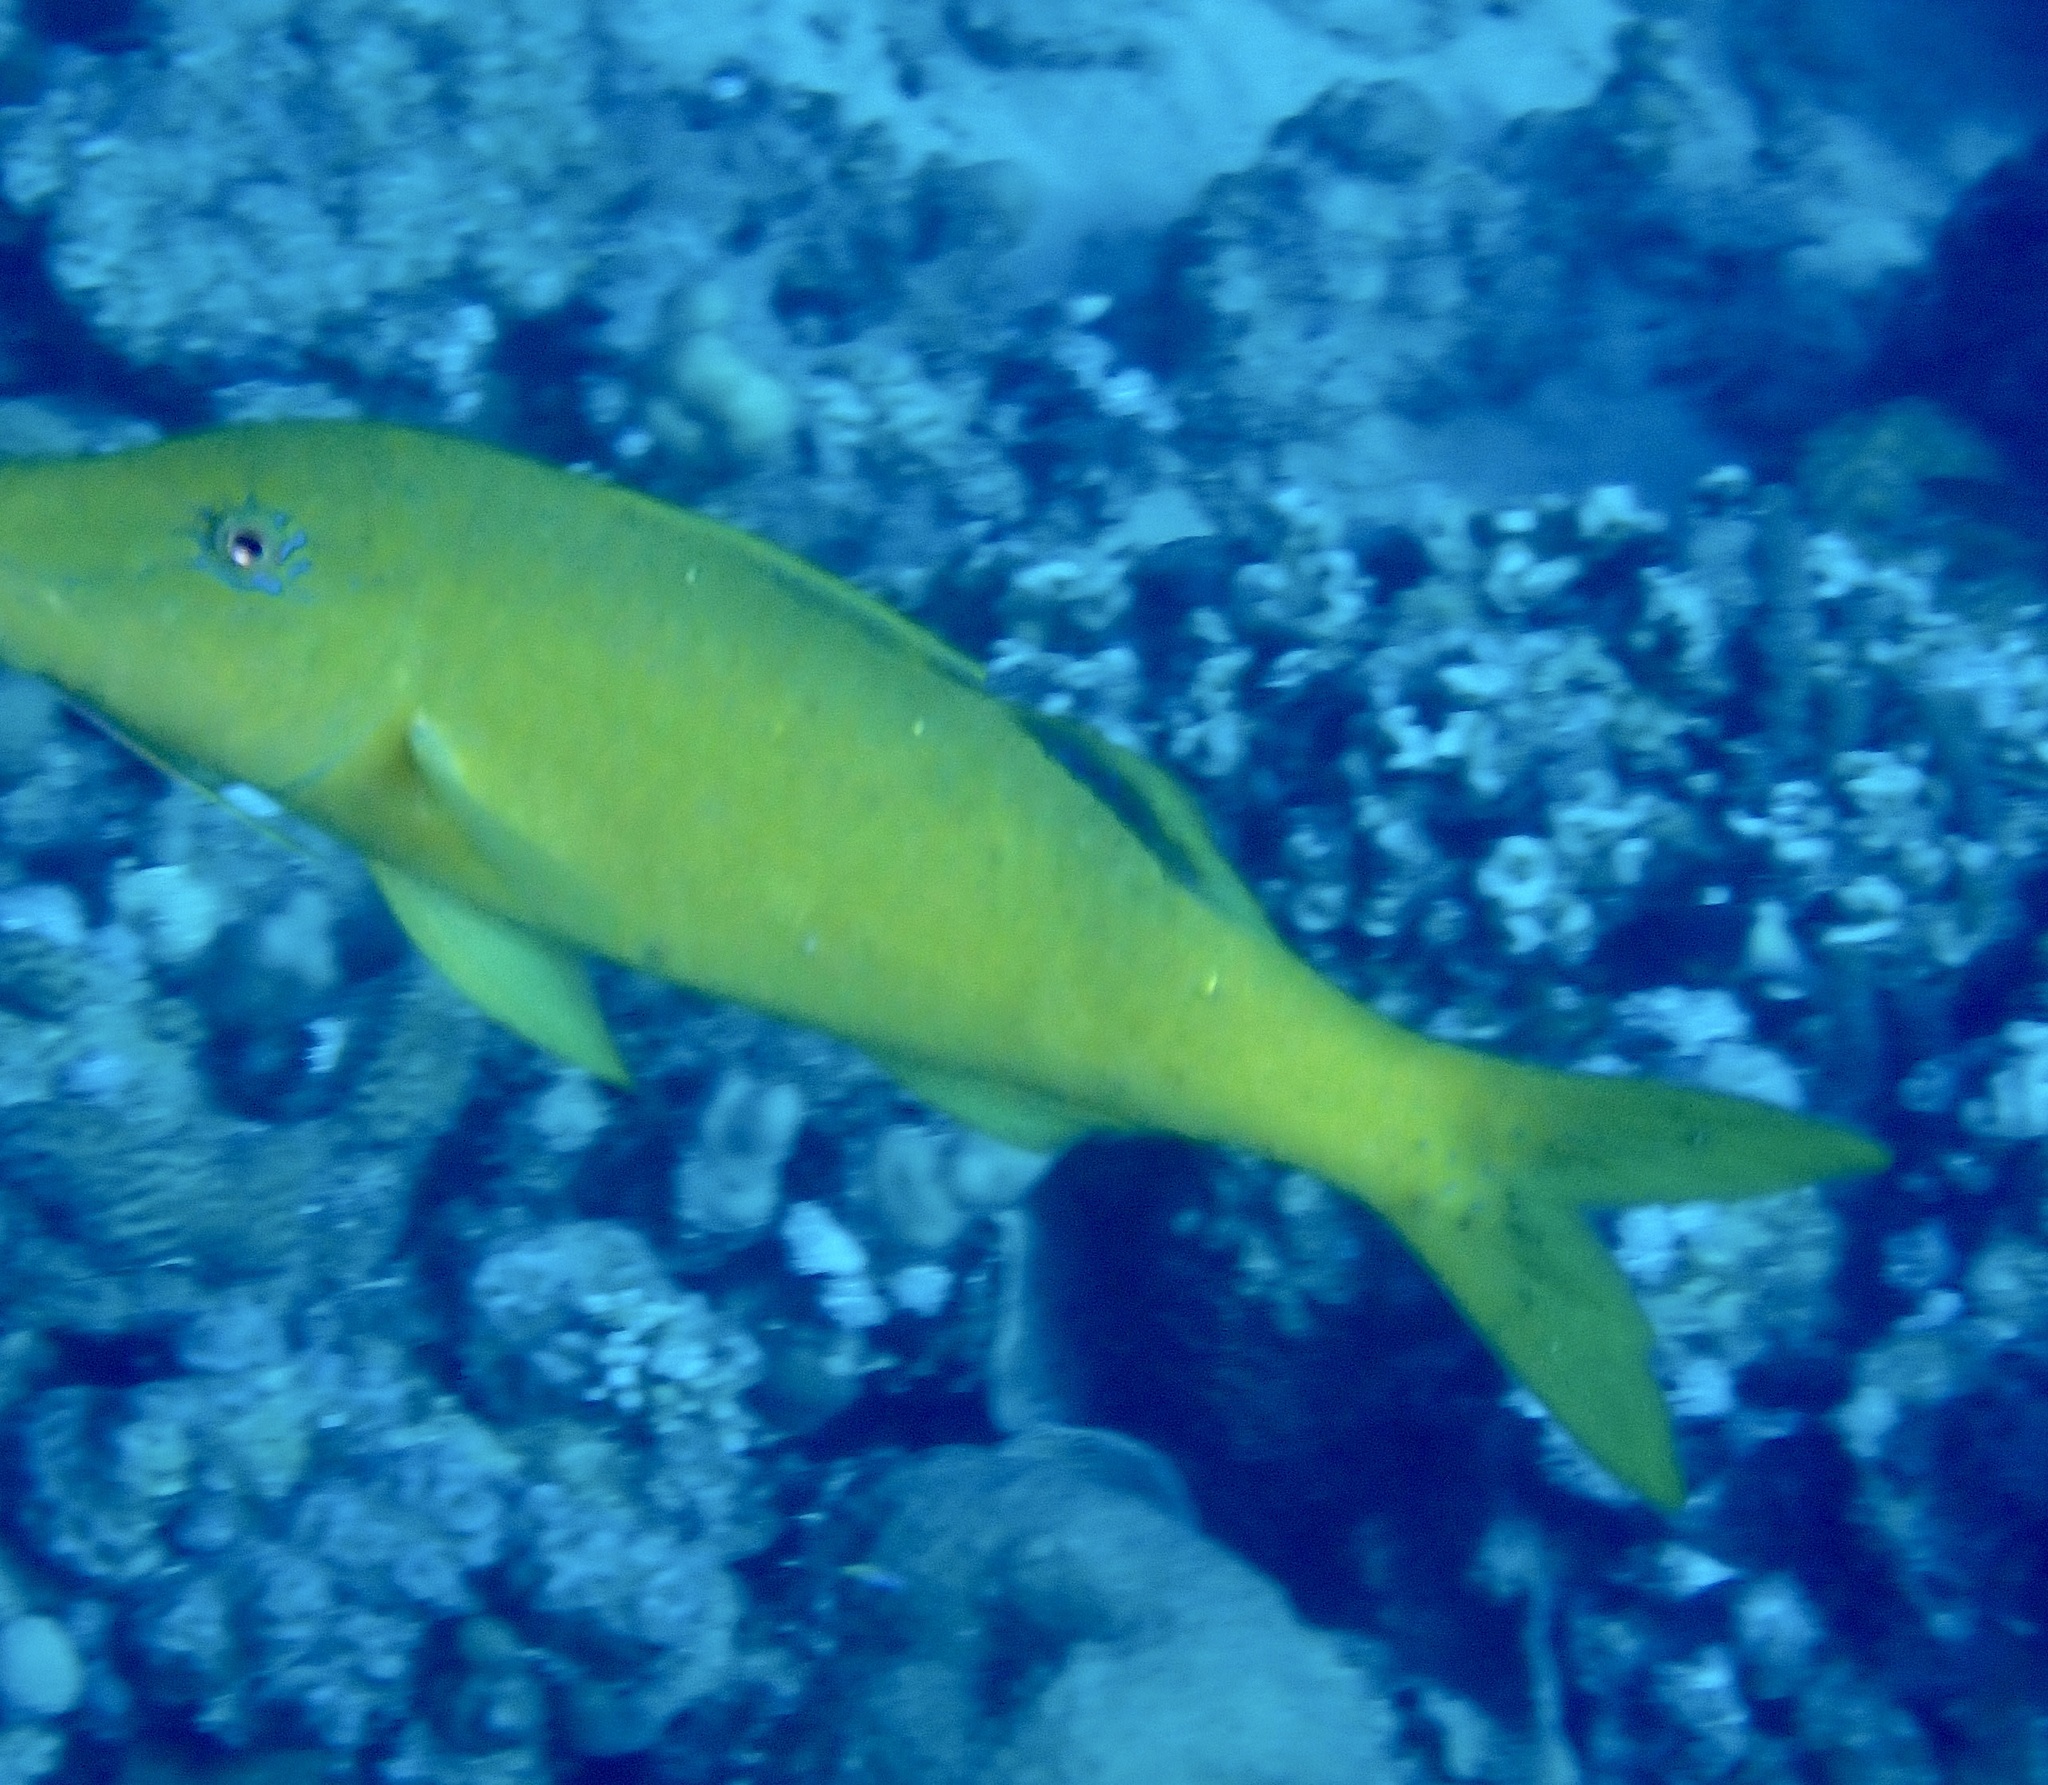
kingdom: Animalia
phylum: Chordata
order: Perciformes
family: Mullidae
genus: Parupeneus
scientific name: Parupeneus cyclostomus
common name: Goldsaddle goatfish
